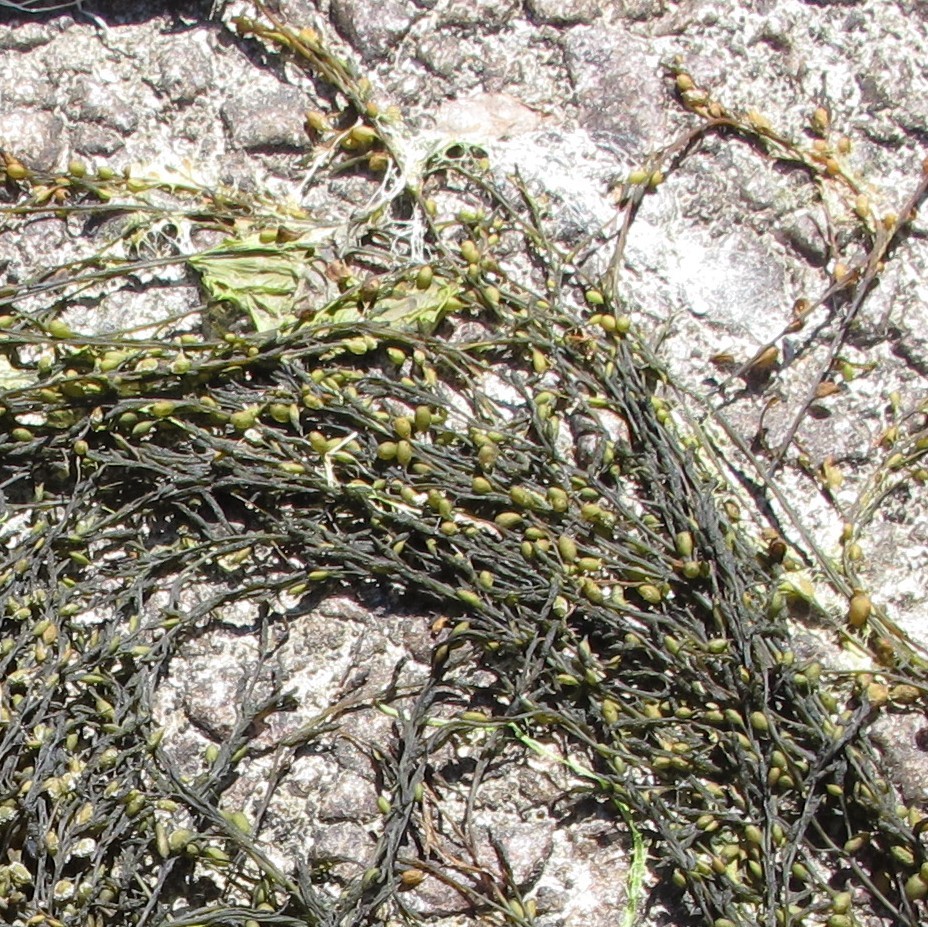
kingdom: Chromista
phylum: Ochrophyta
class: Phaeophyceae
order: Fucales
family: Sargassaceae
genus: Sargassum
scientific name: Sargassum muticum
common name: Japweed
